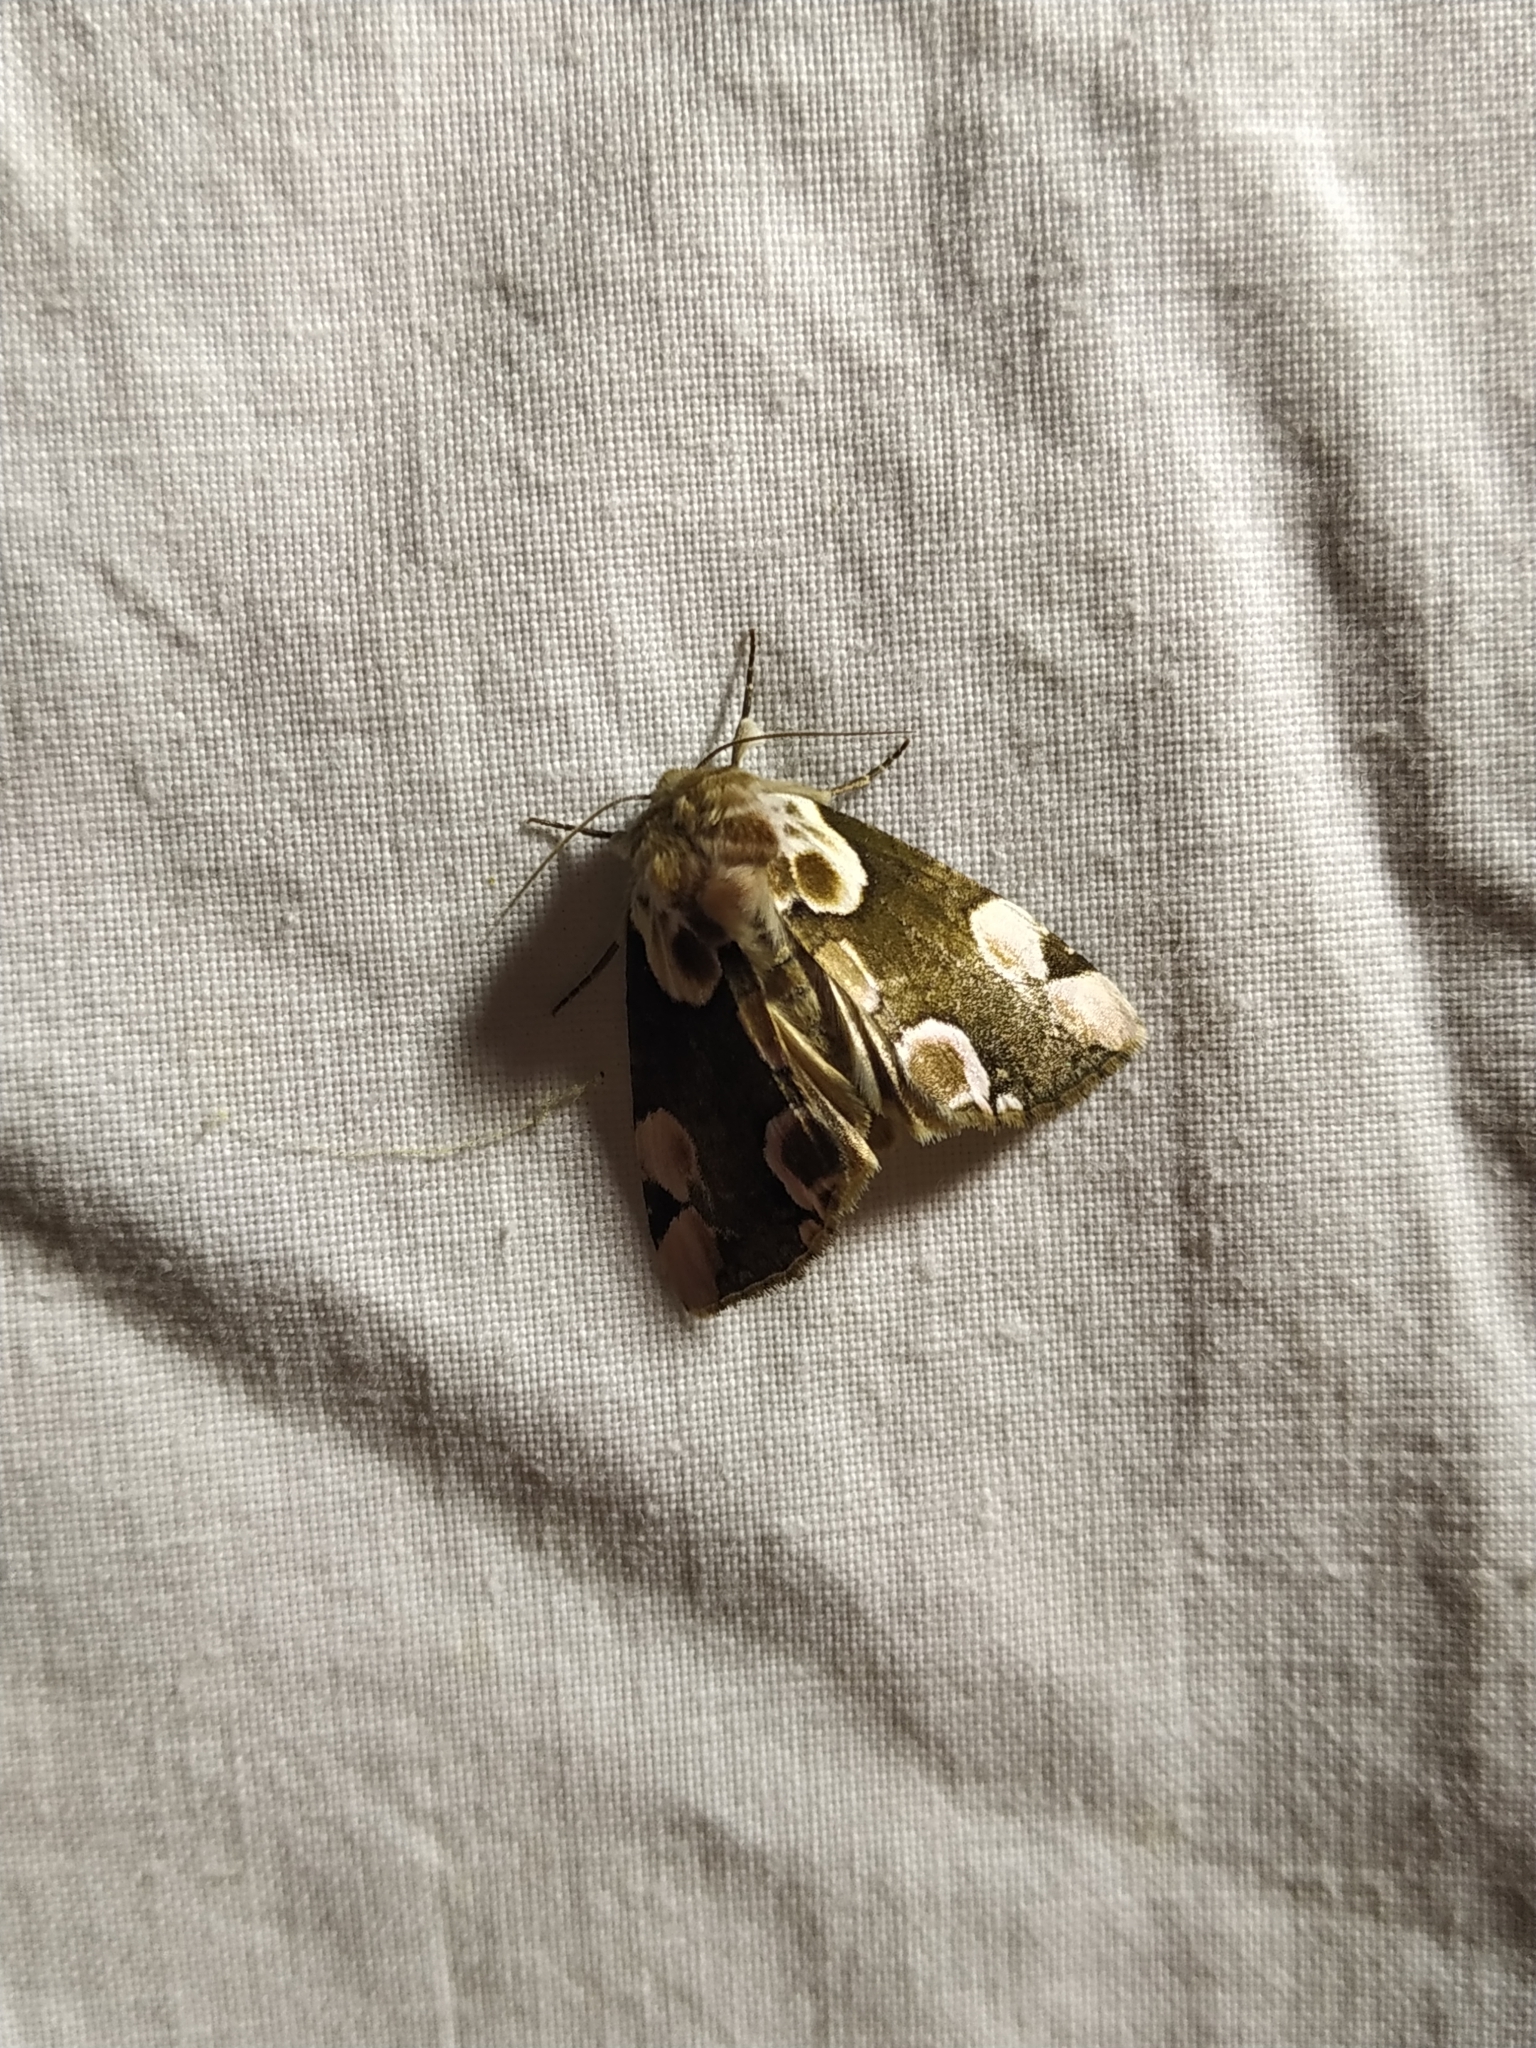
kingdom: Animalia
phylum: Arthropoda
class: Insecta
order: Lepidoptera
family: Drepanidae
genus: Thyatira
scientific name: Thyatira batis
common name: Peach blossom
